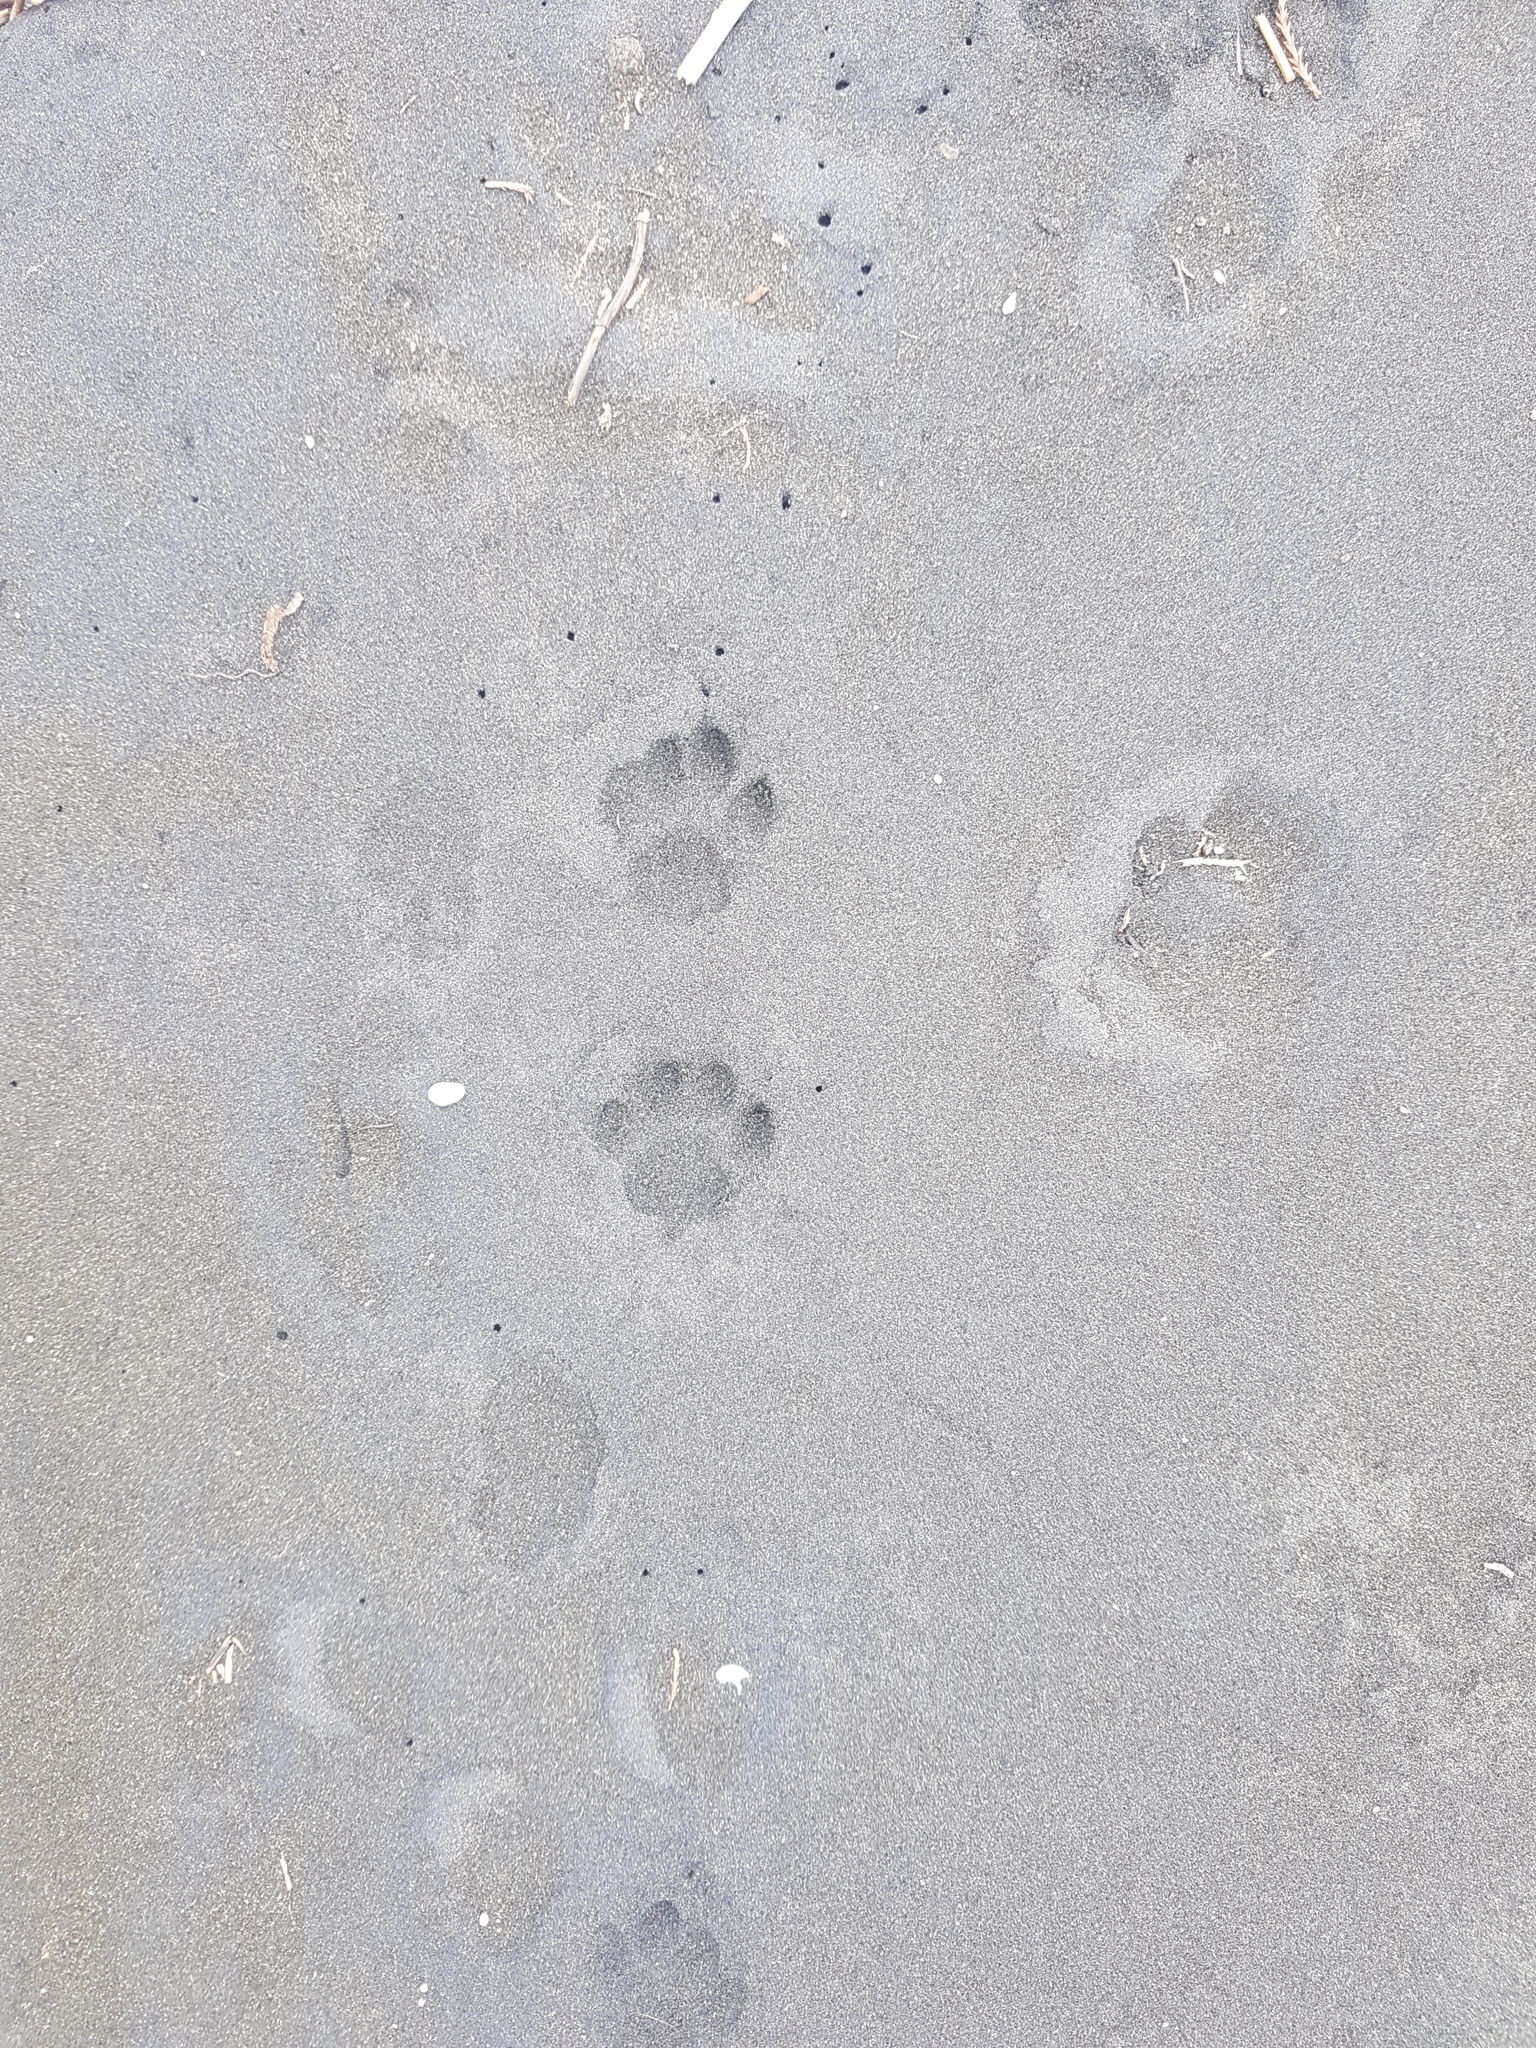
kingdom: Animalia
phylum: Chordata
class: Mammalia
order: Carnivora
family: Felidae
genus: Felis
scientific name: Felis catus
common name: Domestic cat
